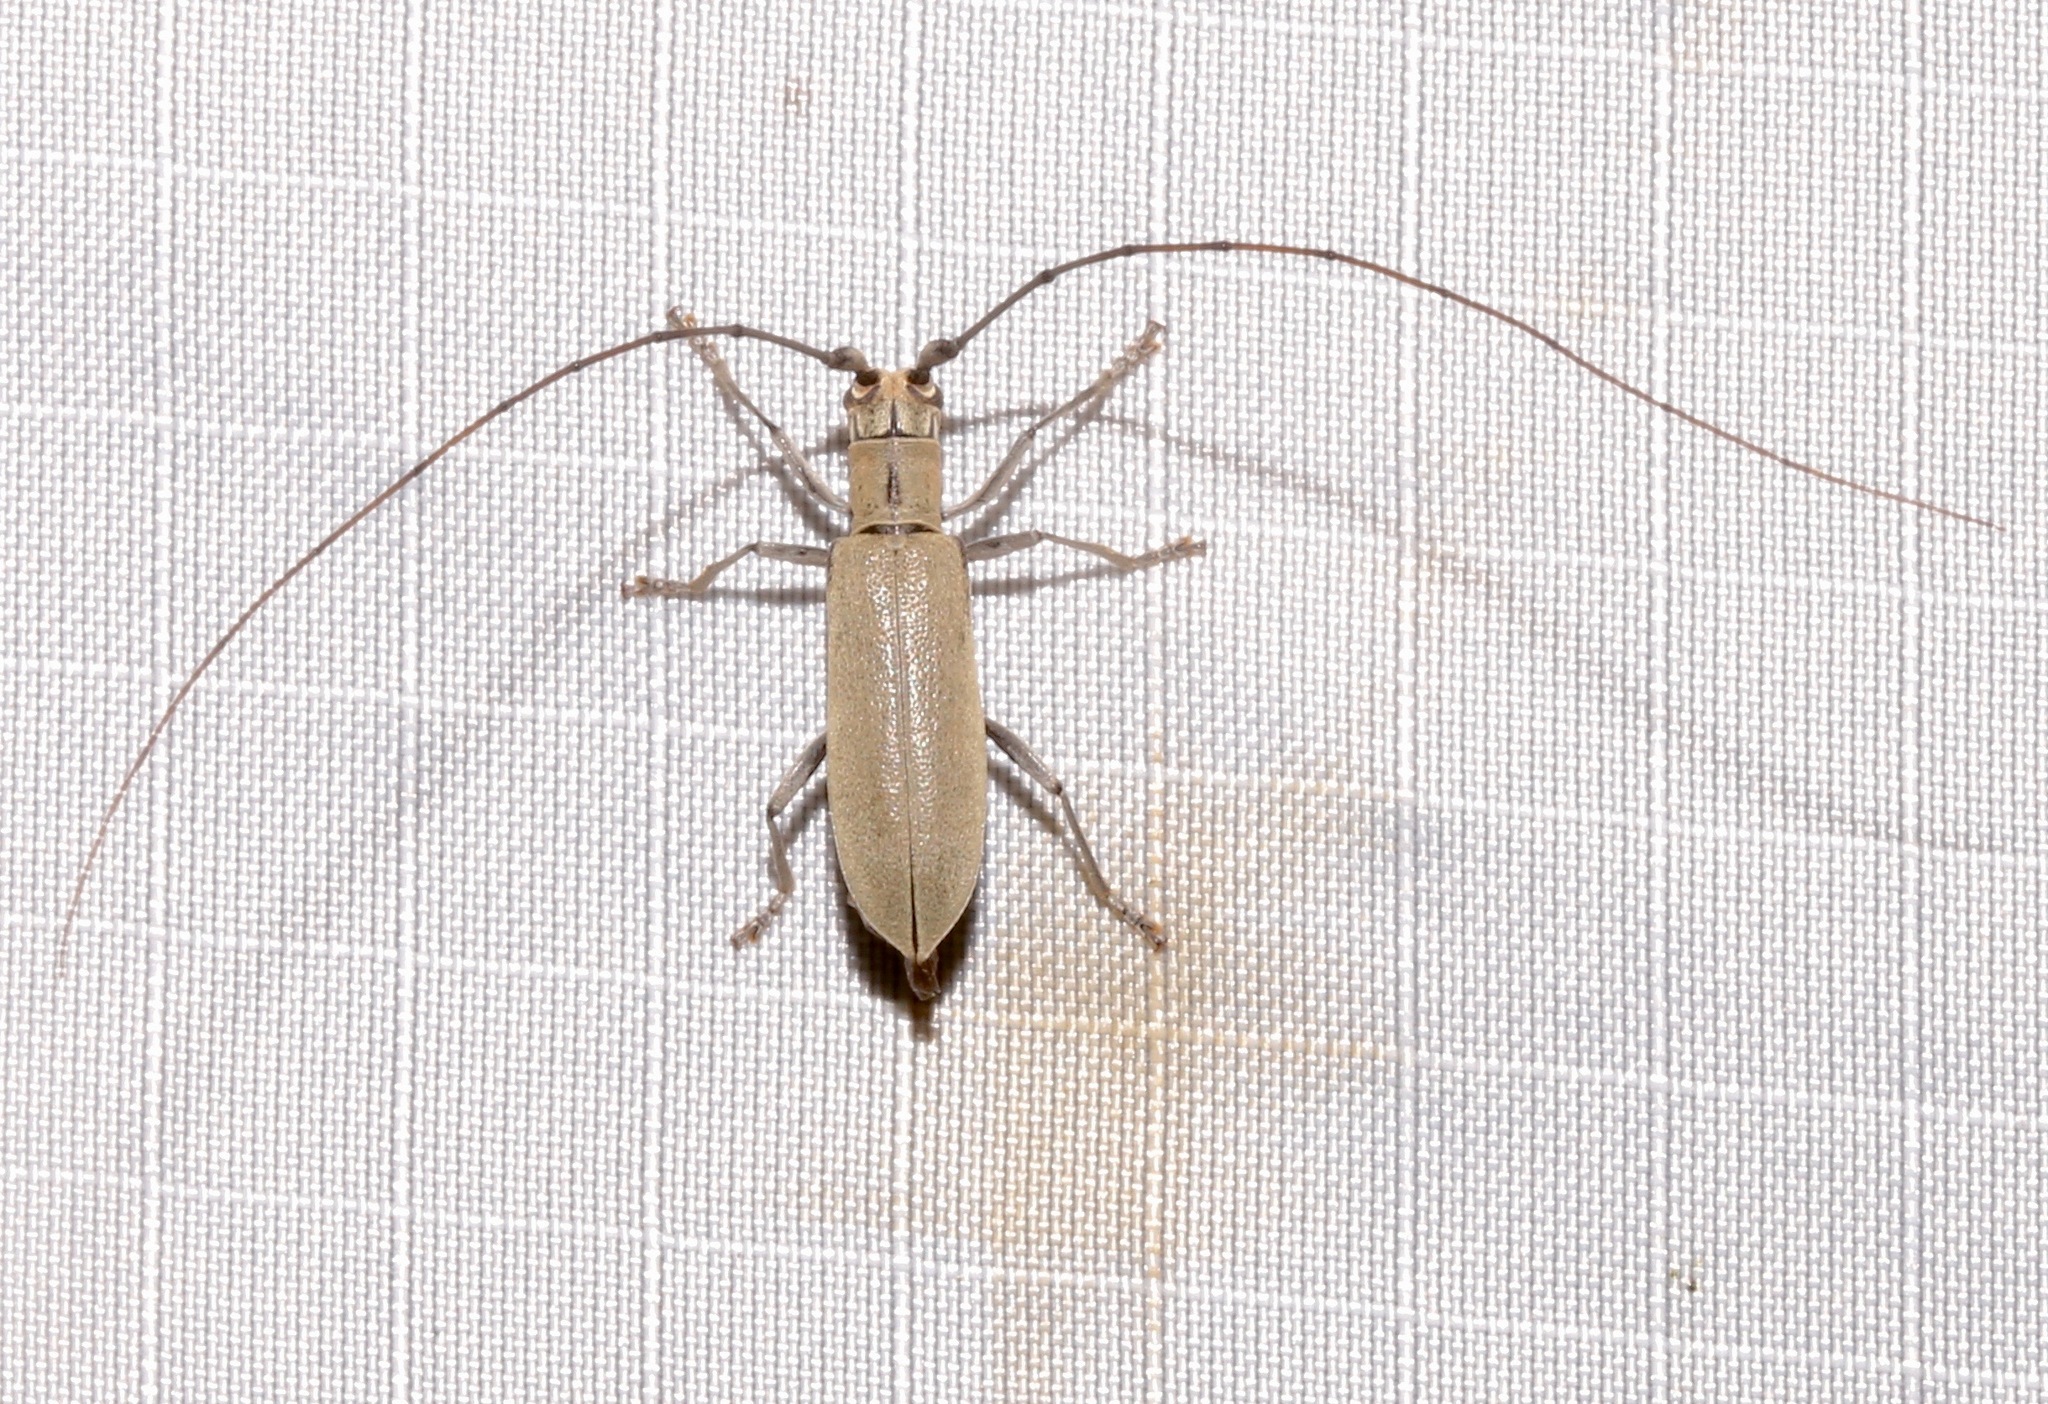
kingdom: Animalia
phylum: Arthropoda
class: Insecta
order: Coleoptera
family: Cerambycidae
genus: Dorcaschema
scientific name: Dorcaschema cinereum
